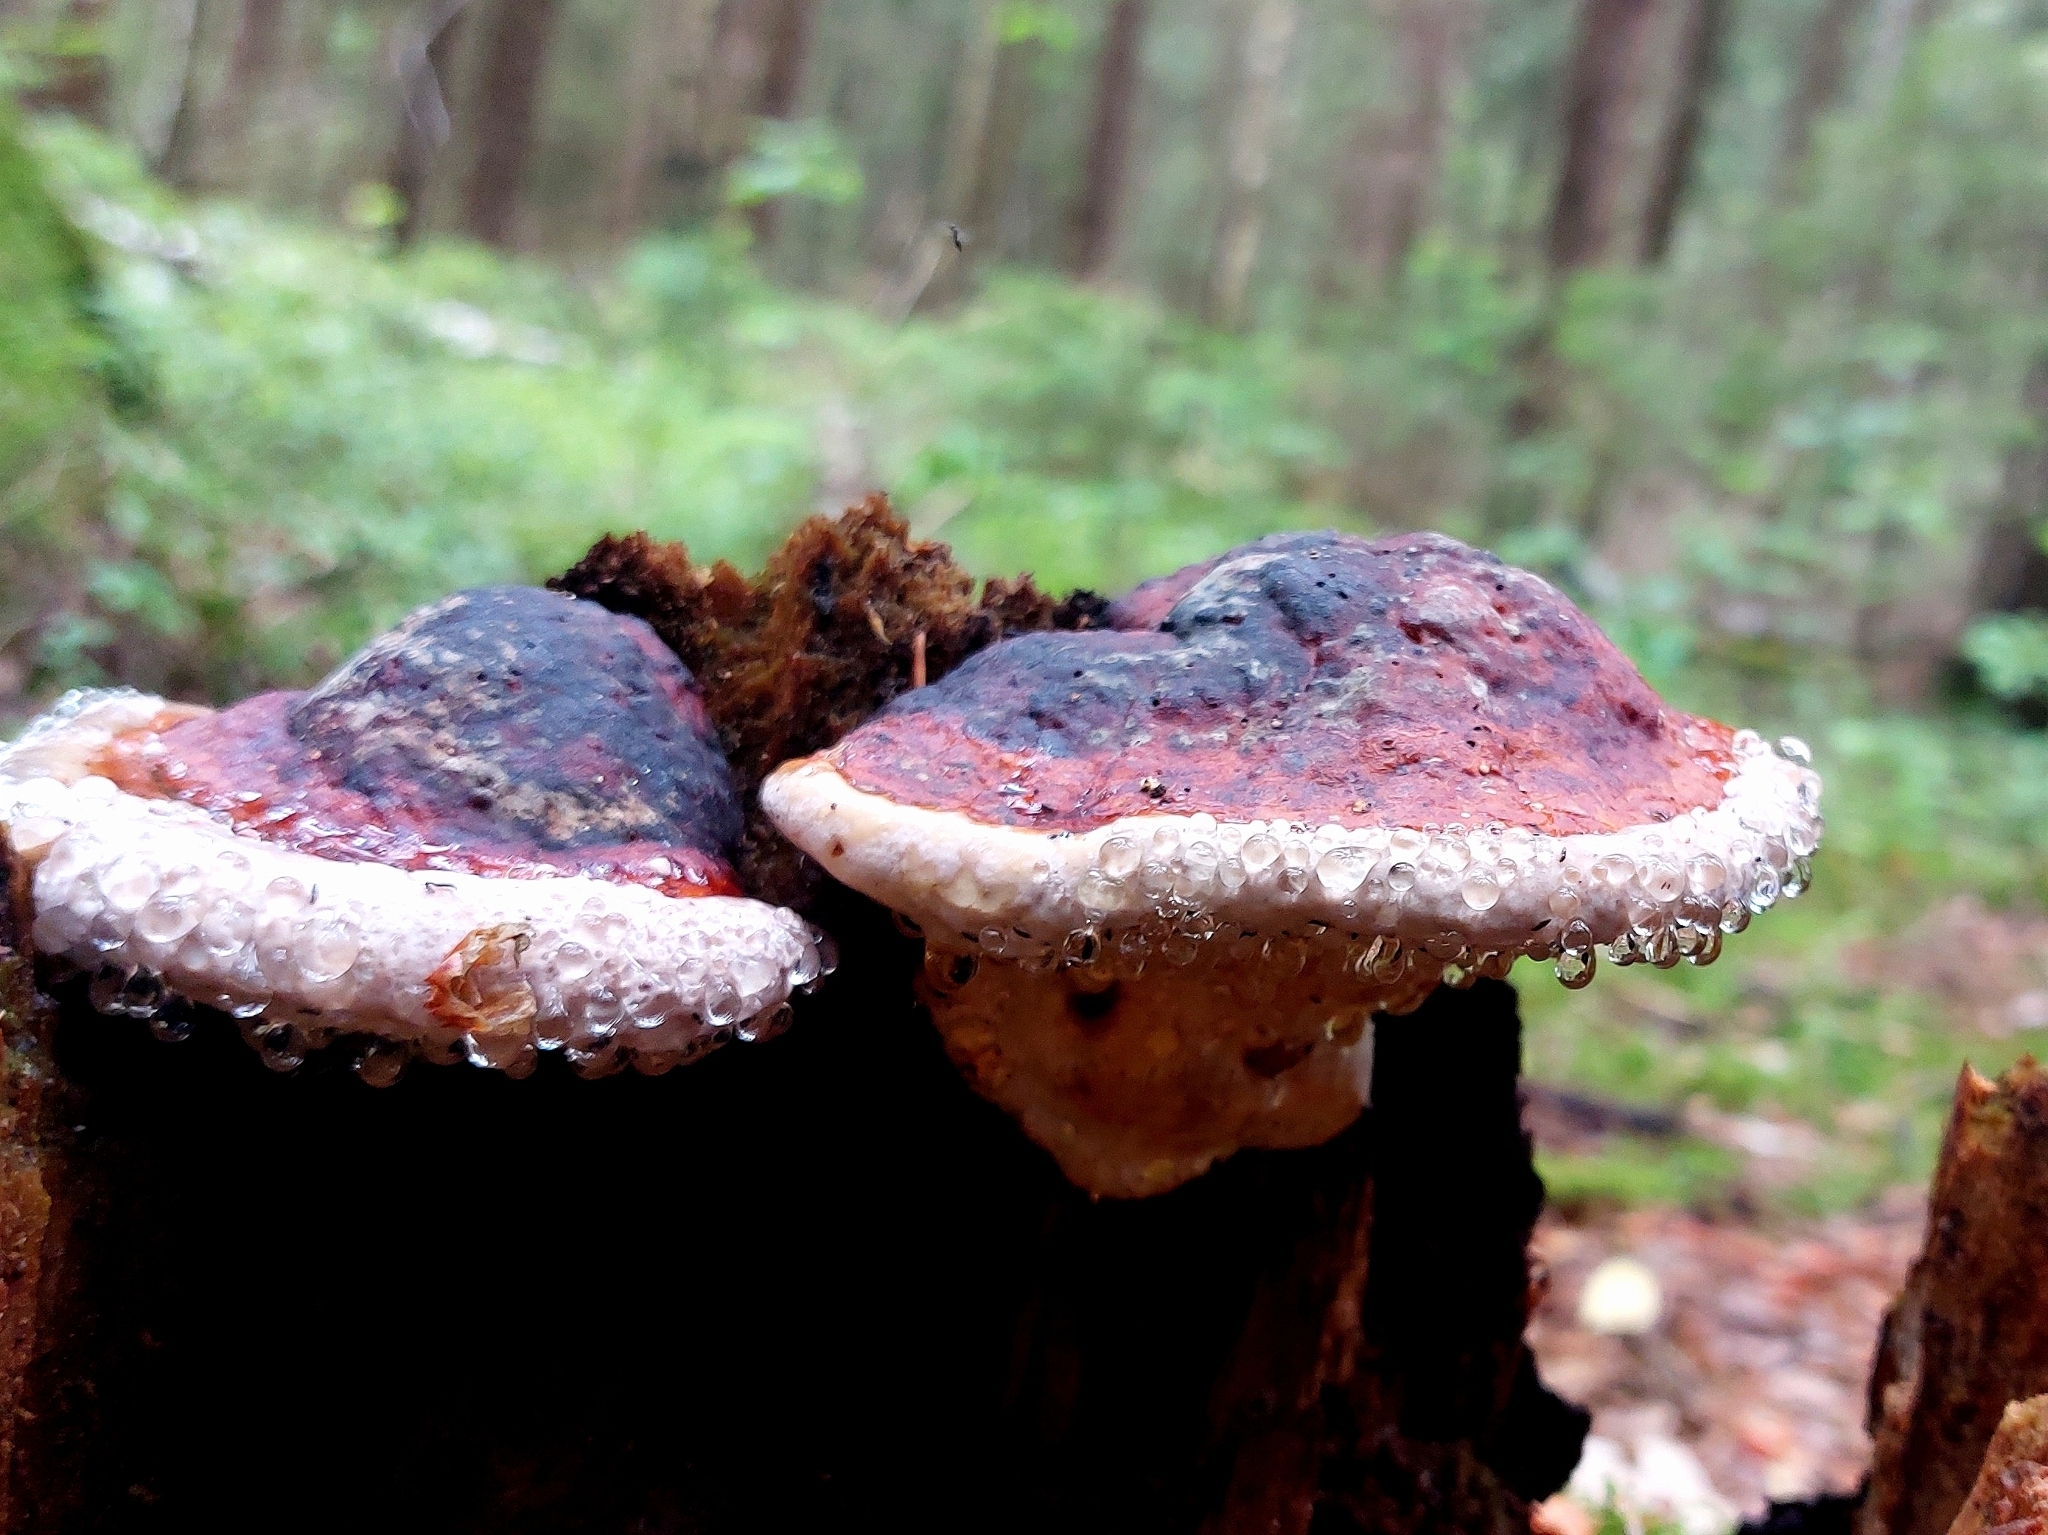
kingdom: Fungi
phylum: Basidiomycota
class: Agaricomycetes
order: Polyporales
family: Fomitopsidaceae
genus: Fomitopsis
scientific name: Fomitopsis pinicola
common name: Red-belted bracket
